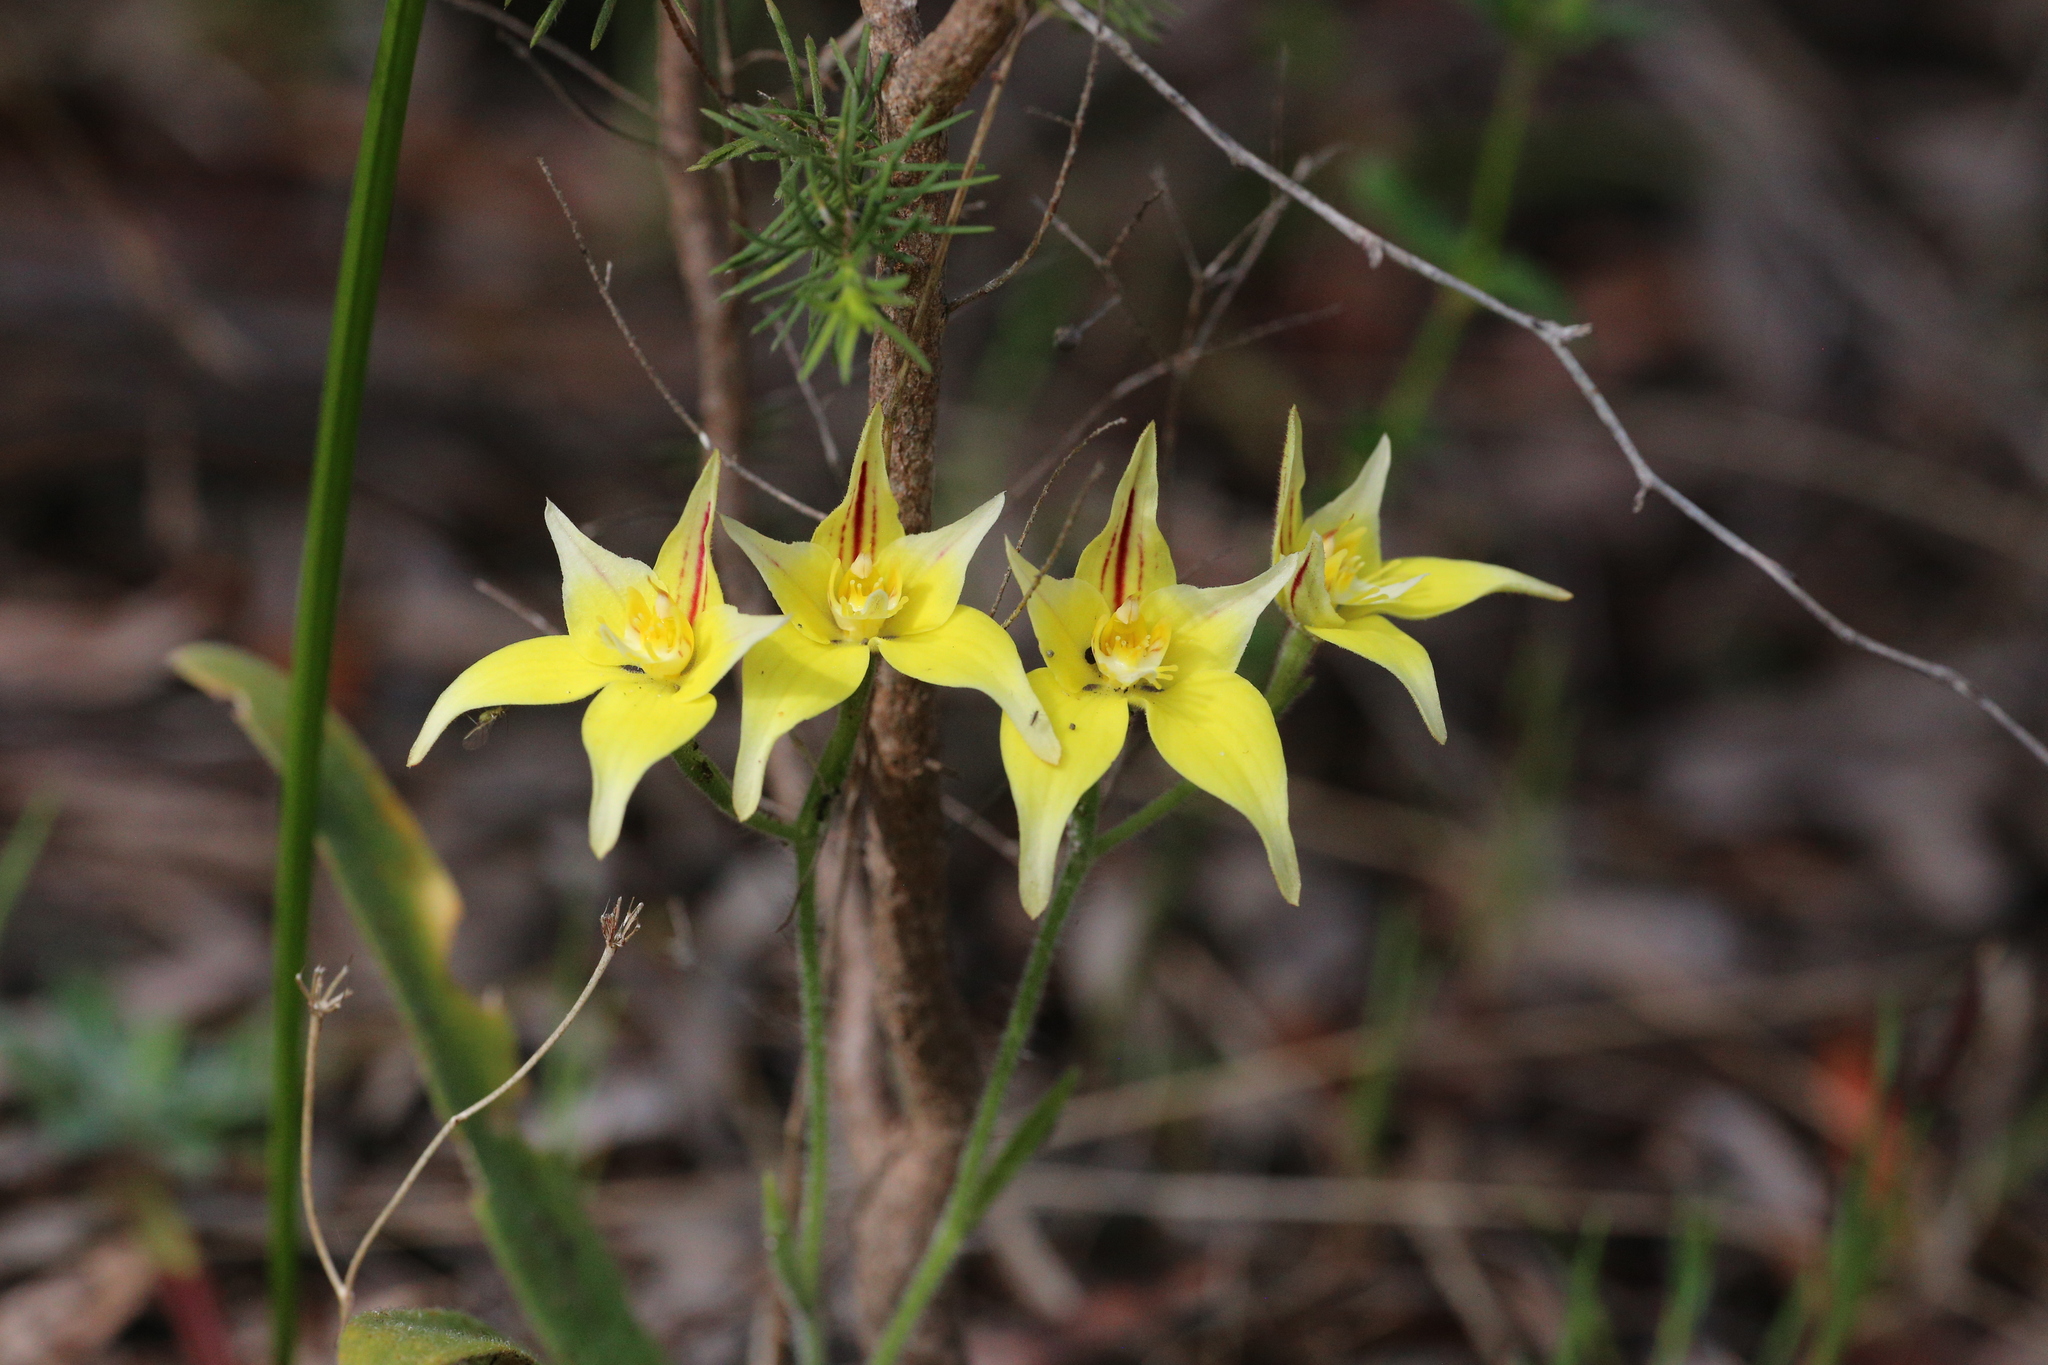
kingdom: Plantae
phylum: Tracheophyta
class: Liliopsida
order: Asparagales
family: Orchidaceae
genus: Caladenia
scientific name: Caladenia flava
